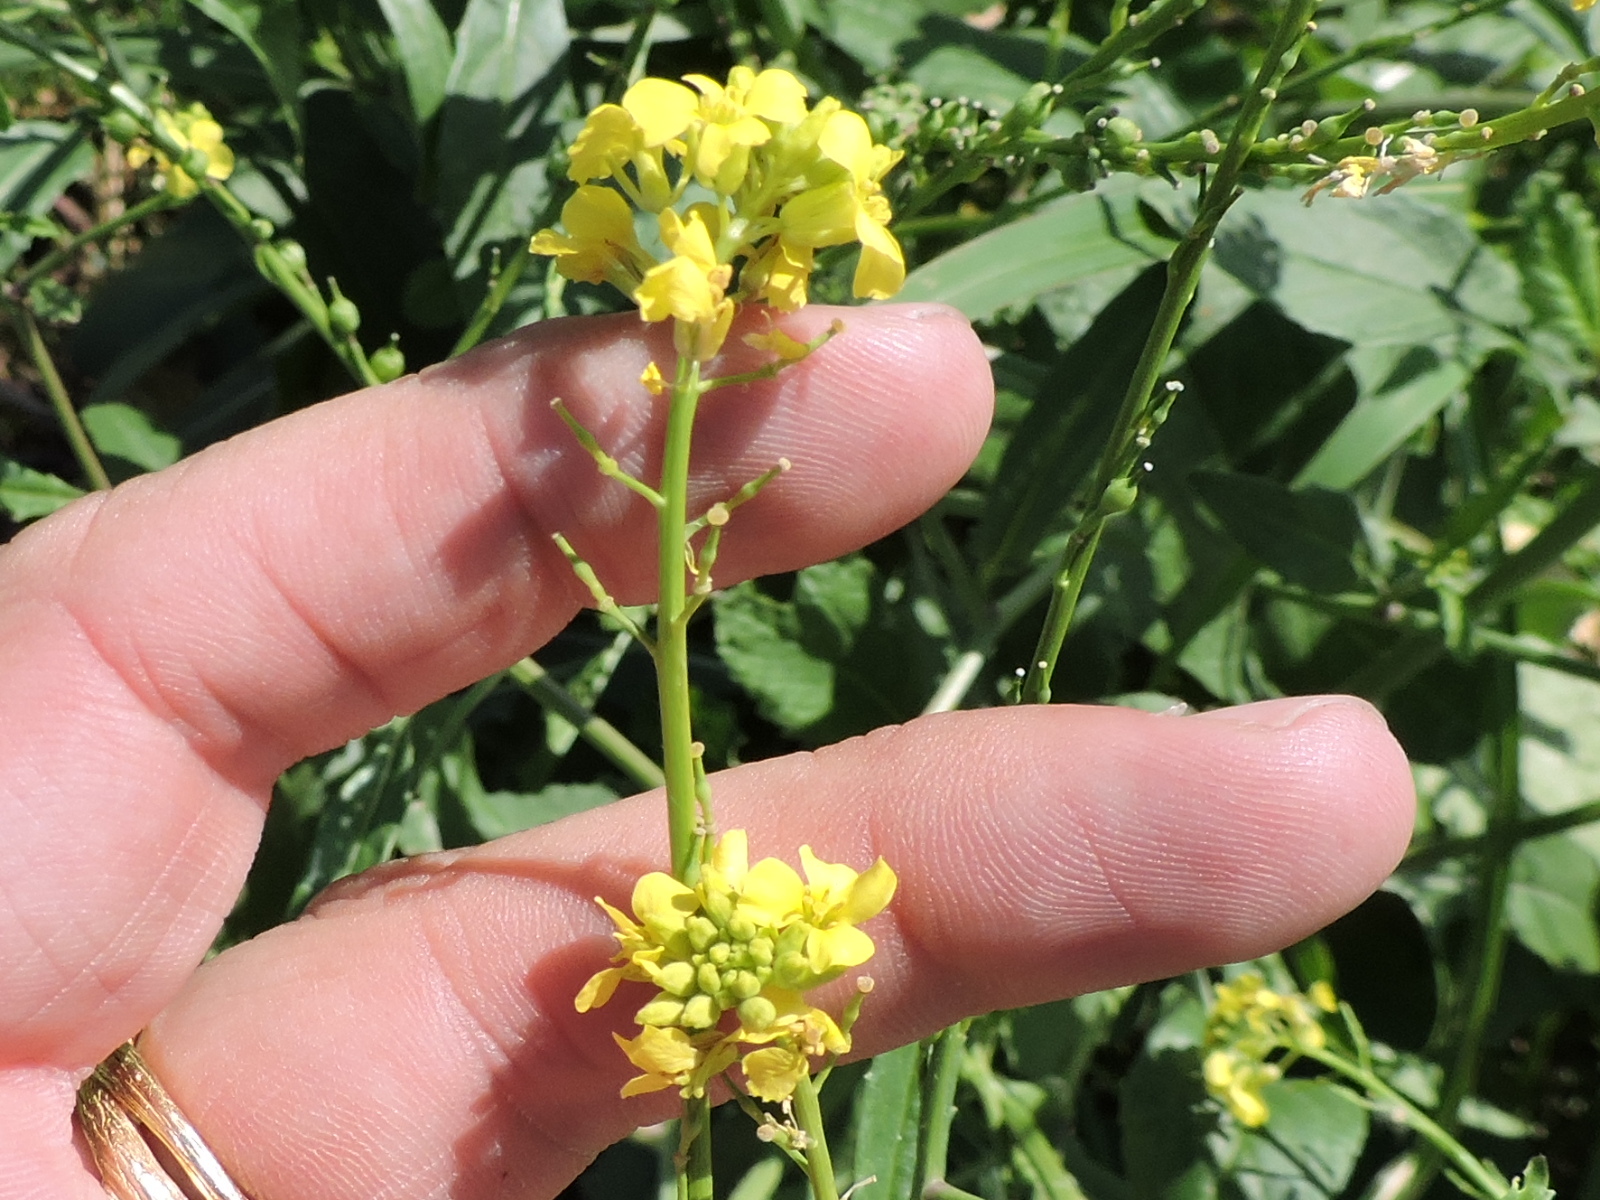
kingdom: Plantae
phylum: Tracheophyta
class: Magnoliopsida
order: Brassicales
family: Brassicaceae
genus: Rapistrum
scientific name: Rapistrum rugosum
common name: Annual bastardcabbage
